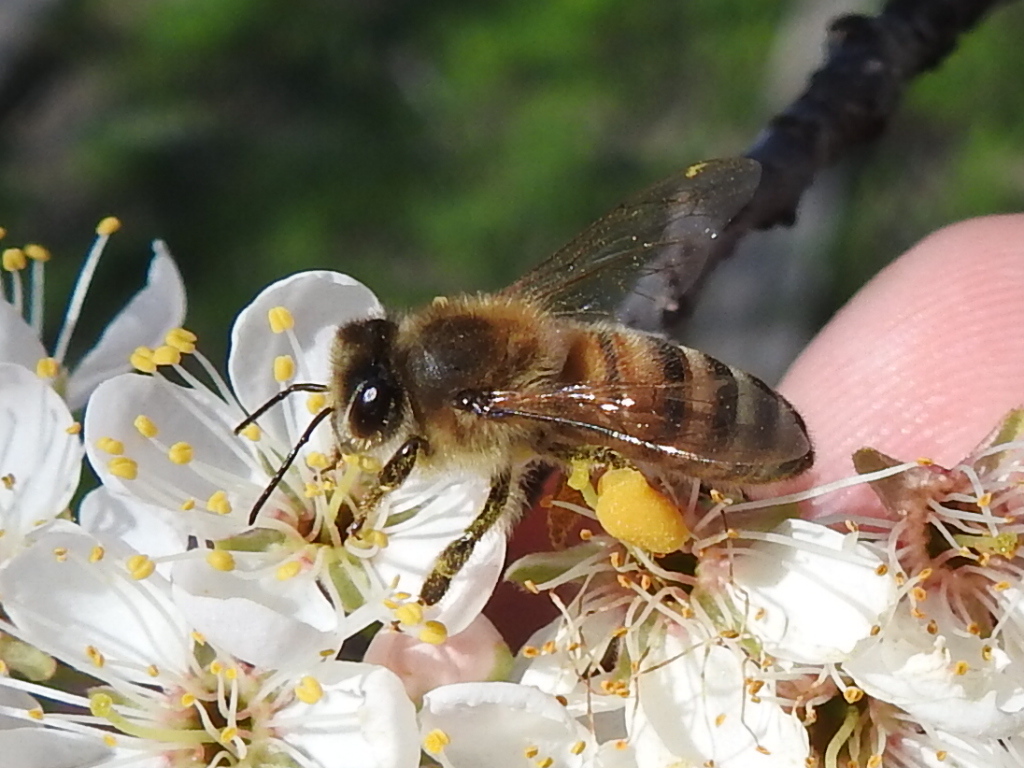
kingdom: Animalia
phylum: Arthropoda
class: Insecta
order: Hymenoptera
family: Apidae
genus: Apis
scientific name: Apis mellifera
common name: Honey bee
